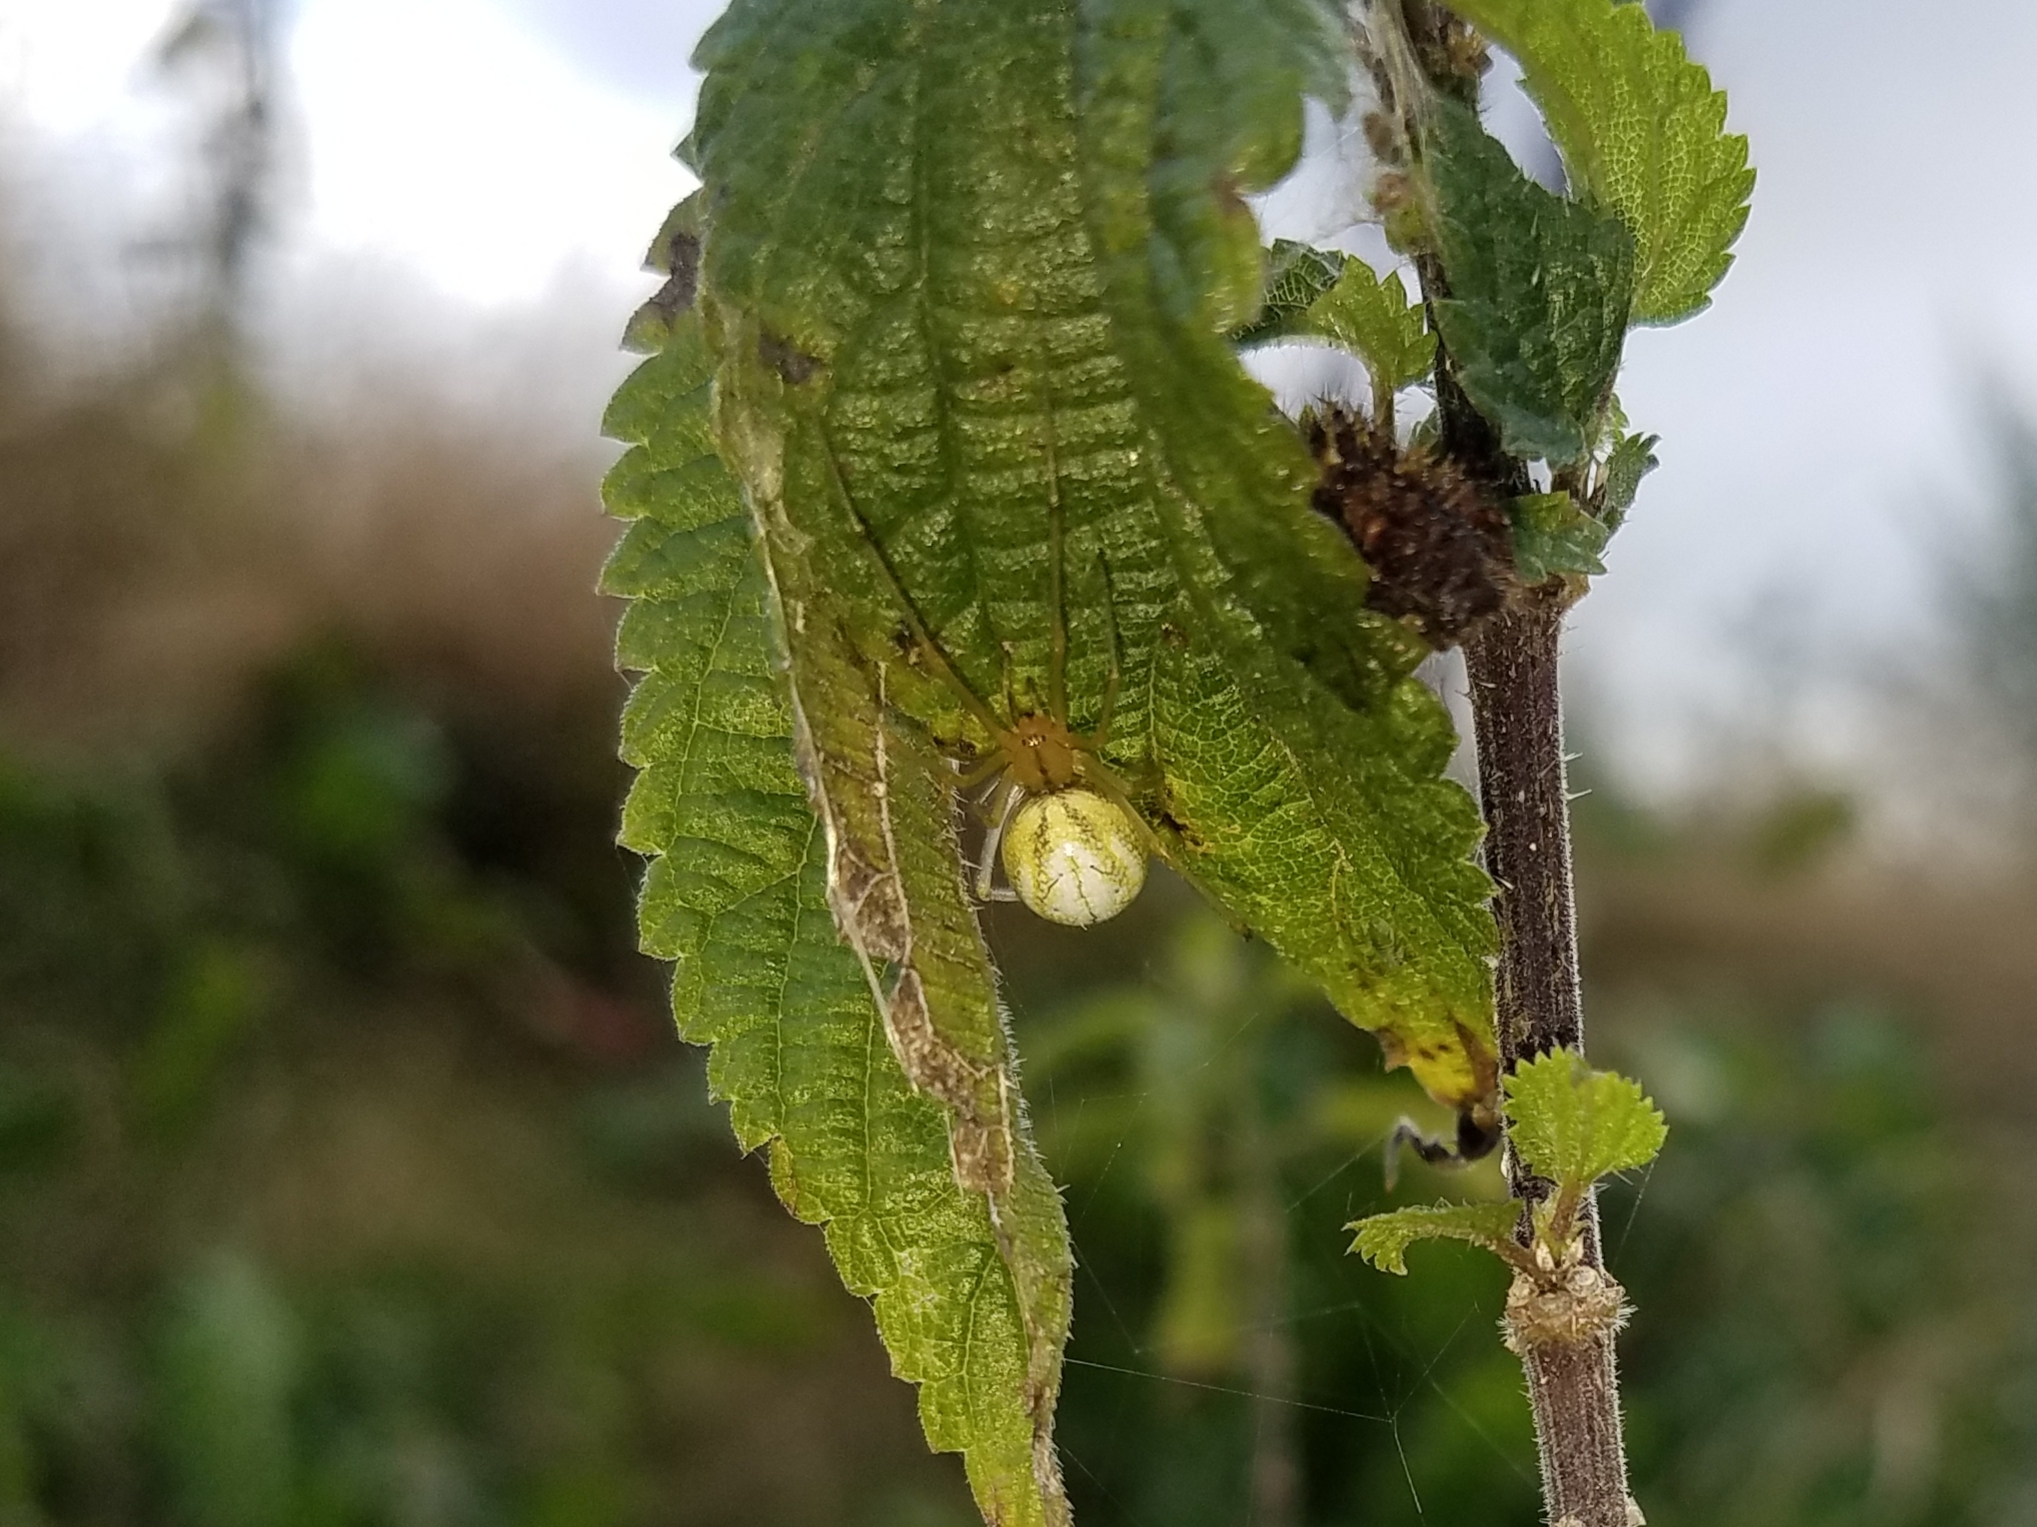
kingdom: Animalia
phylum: Arthropoda
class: Arachnida
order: Araneae
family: Theridiidae
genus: Enoplognatha
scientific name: Enoplognatha ovata
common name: Common candy-striped spider
